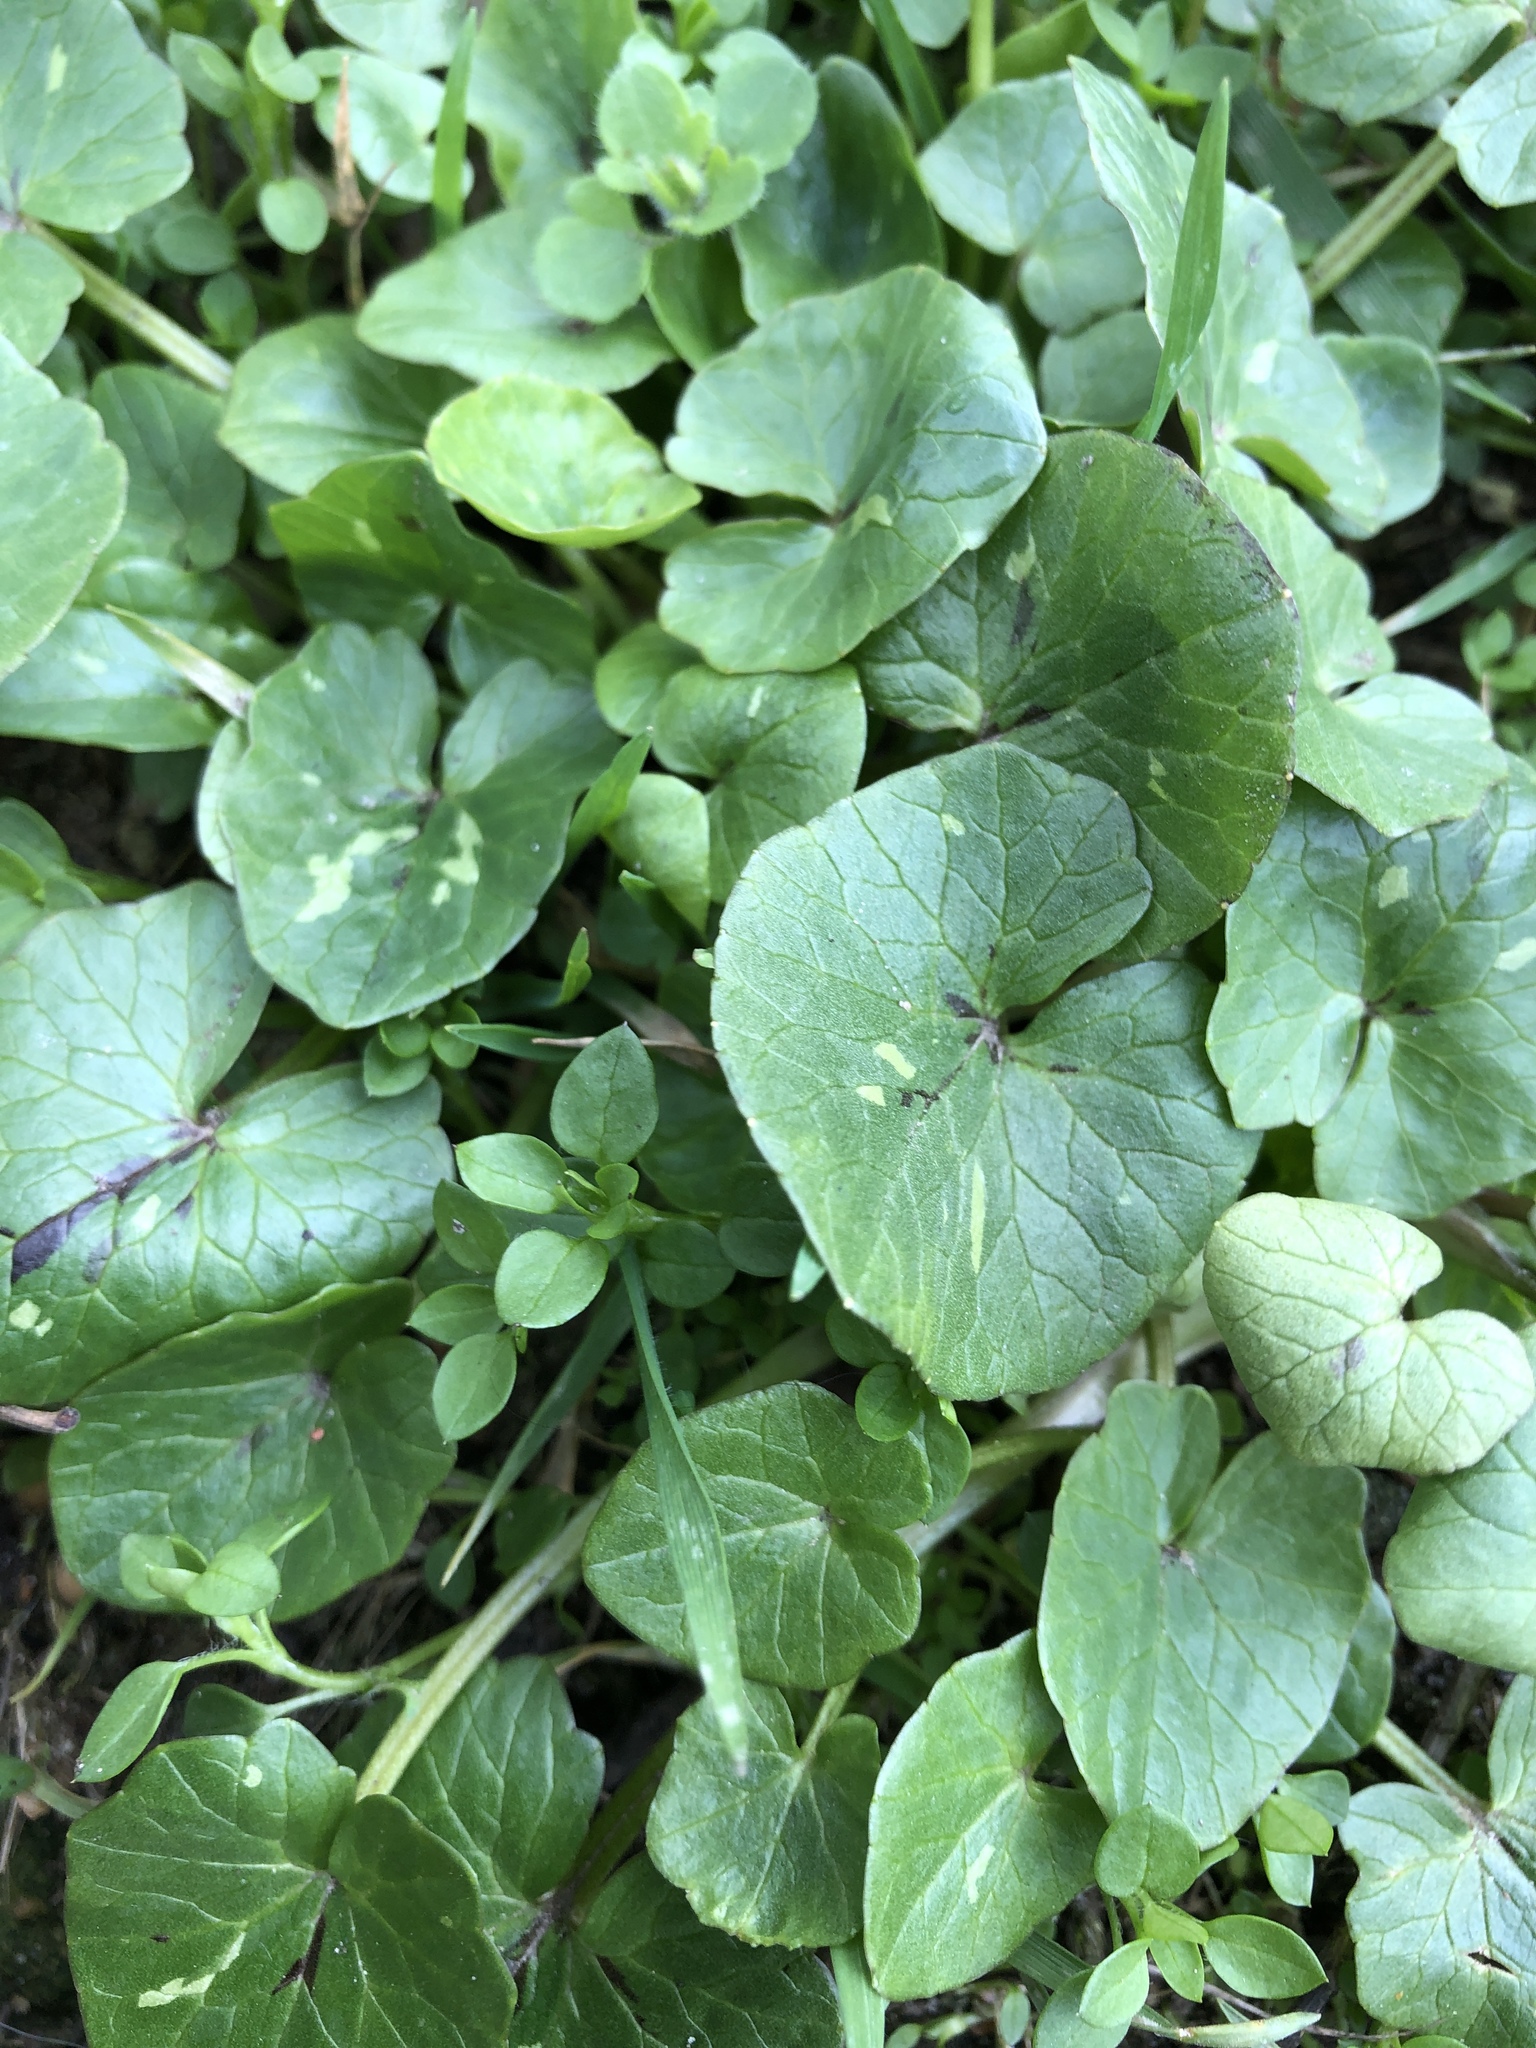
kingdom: Plantae
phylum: Tracheophyta
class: Magnoliopsida
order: Ranunculales
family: Ranunculaceae
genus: Ficaria
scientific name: Ficaria verna
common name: Lesser celandine
